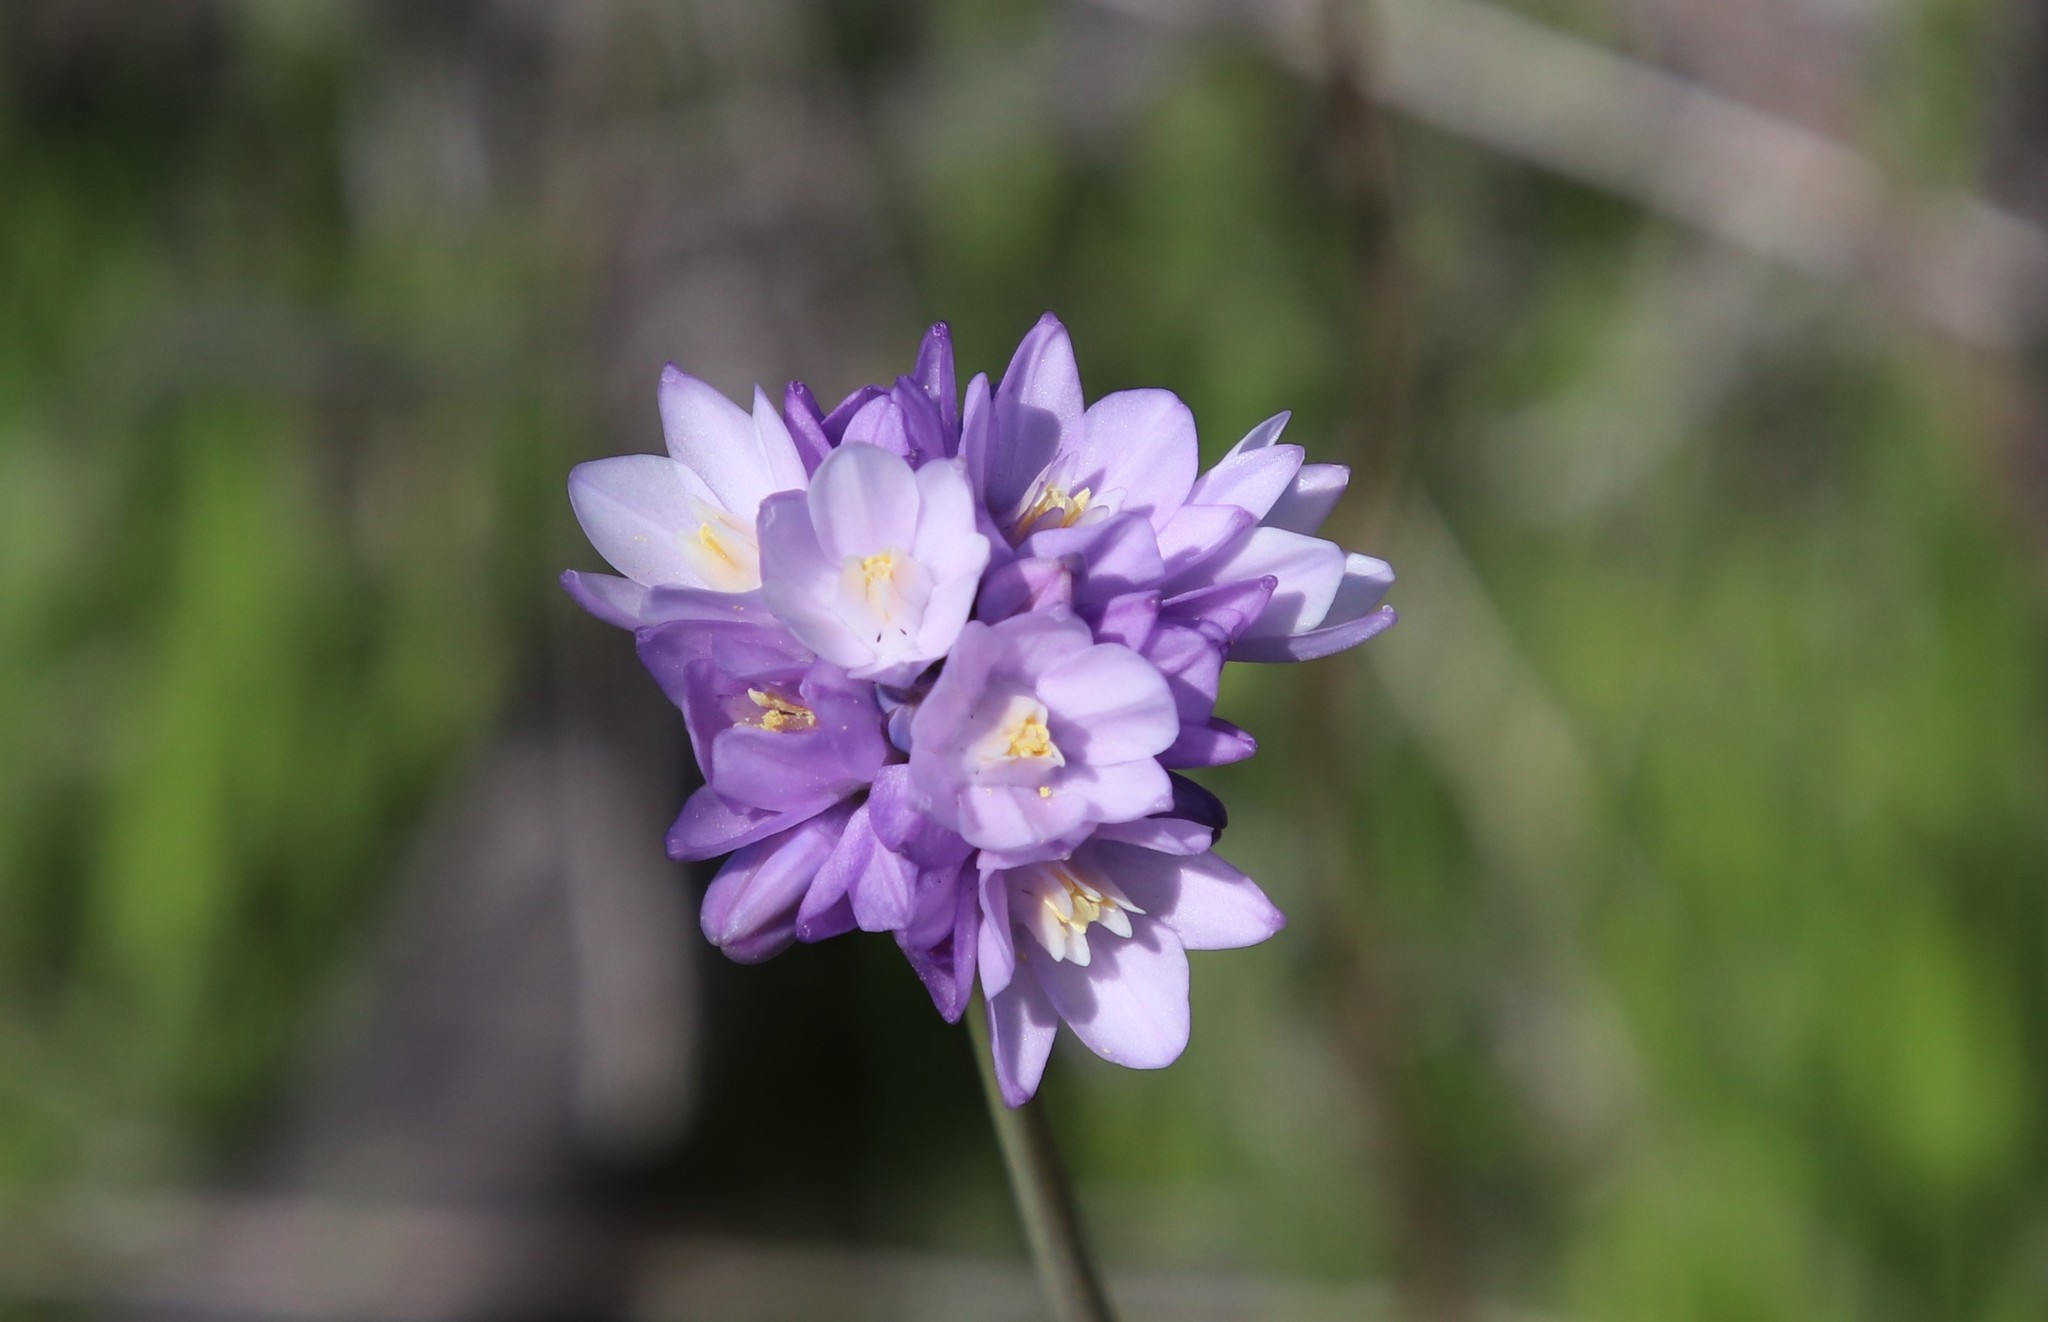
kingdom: Plantae
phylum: Tracheophyta
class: Liliopsida
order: Asparagales
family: Asparagaceae
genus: Dipterostemon
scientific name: Dipterostemon capitatus
